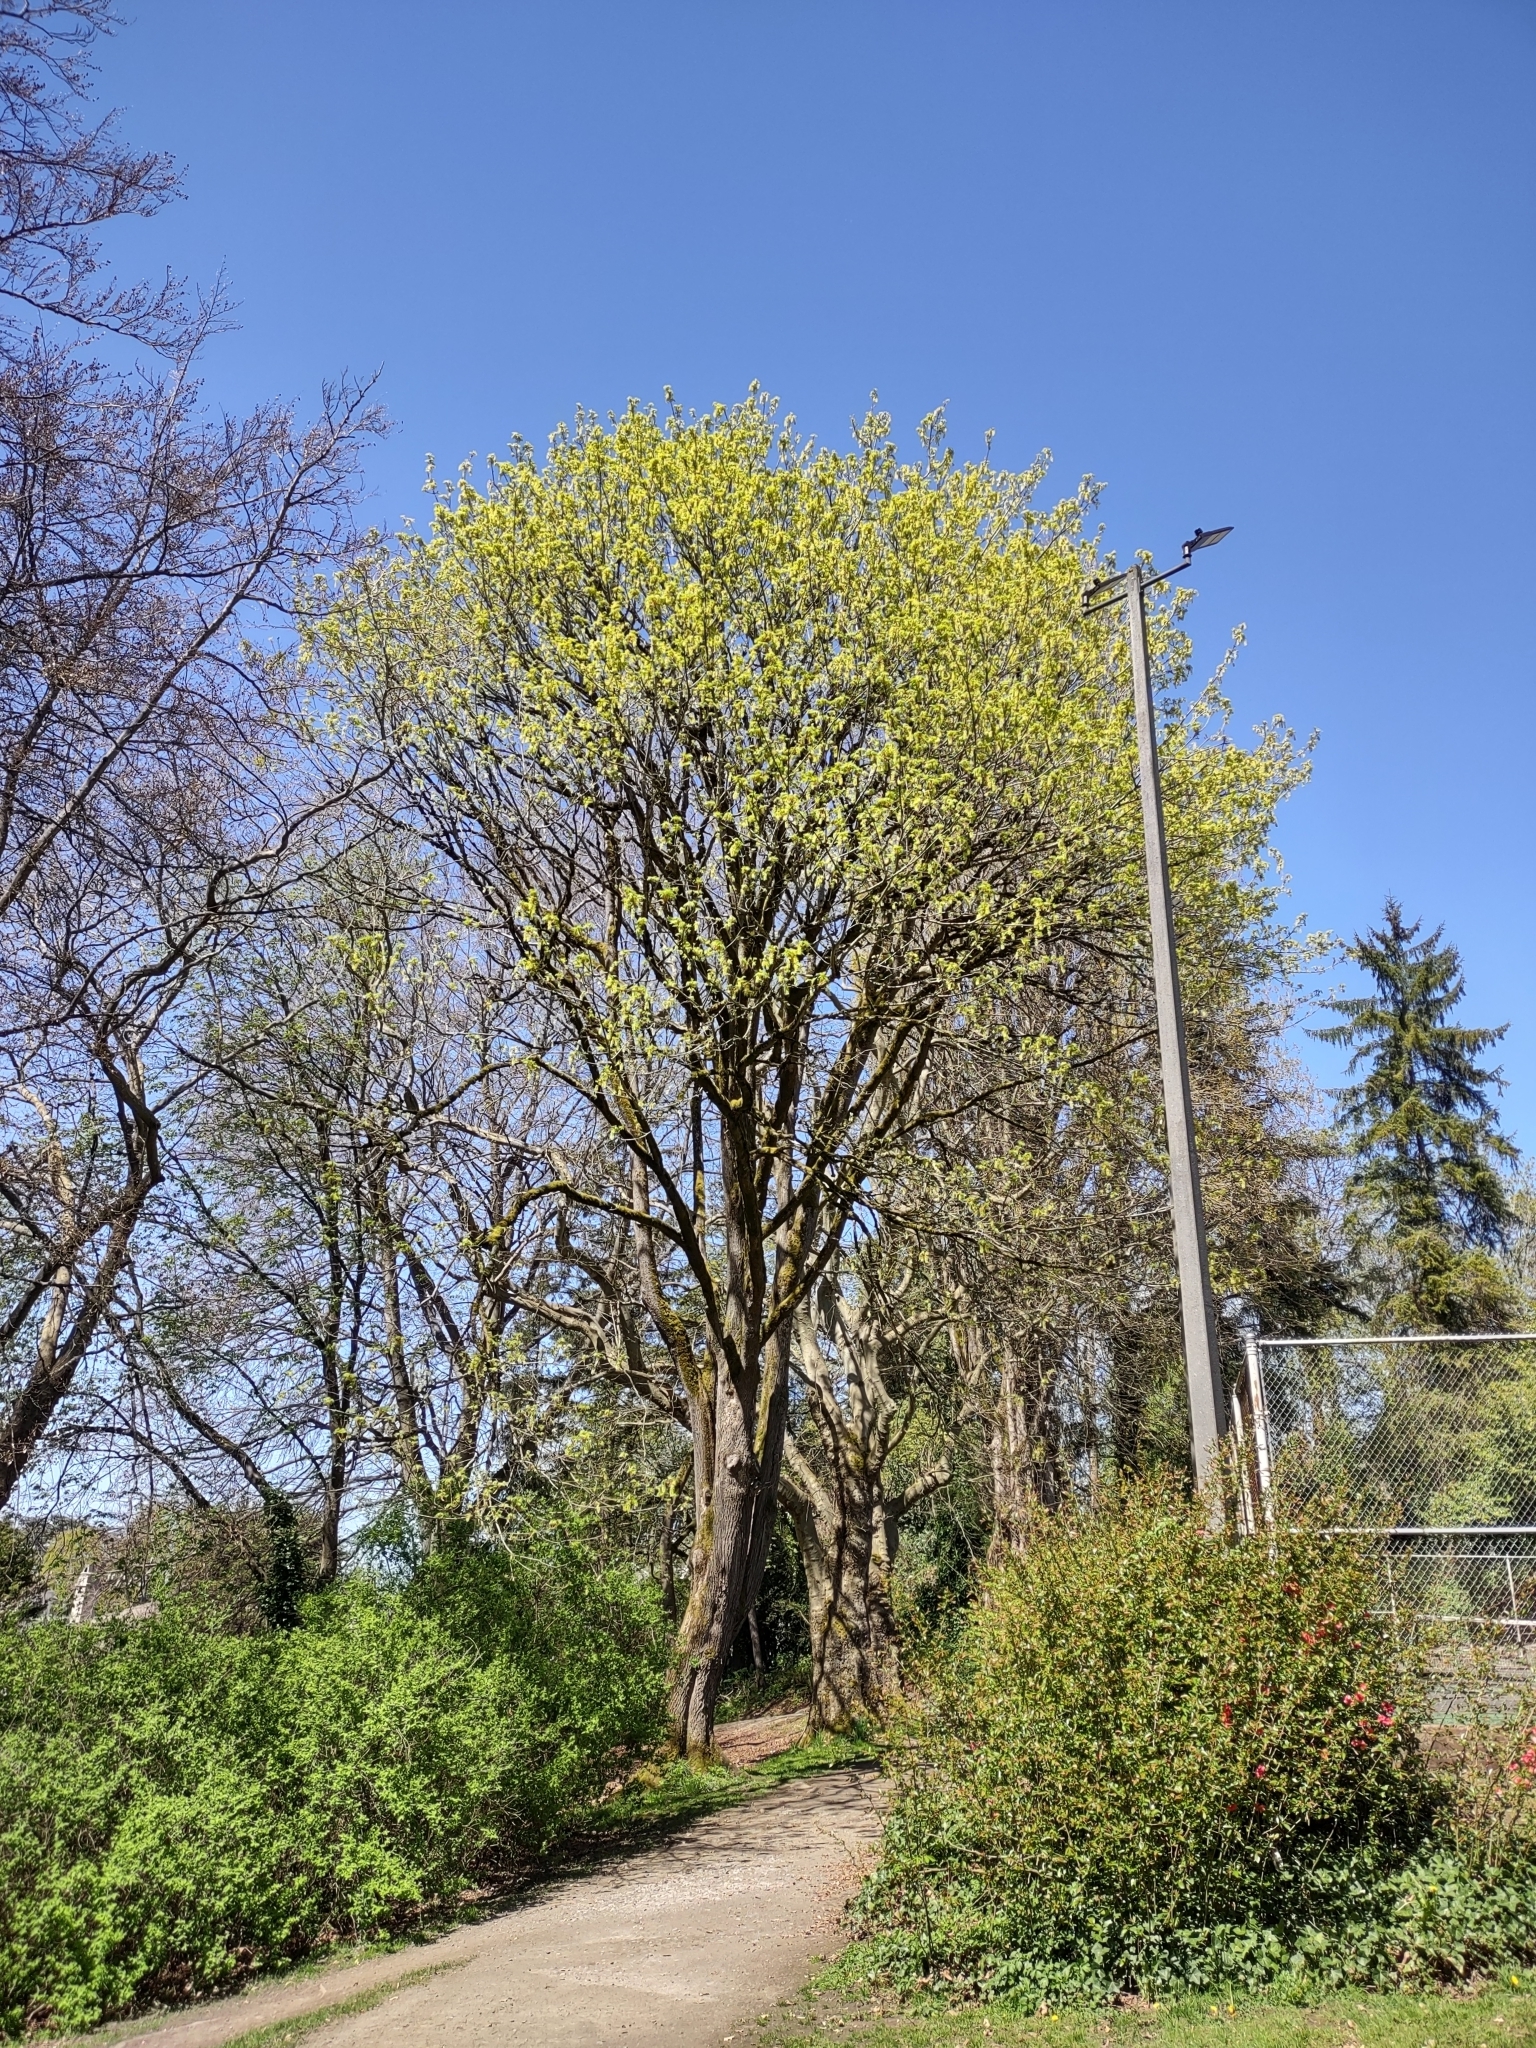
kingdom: Plantae
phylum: Tracheophyta
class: Magnoliopsida
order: Sapindales
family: Sapindaceae
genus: Acer
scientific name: Acer macrophyllum
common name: Oregon maple
